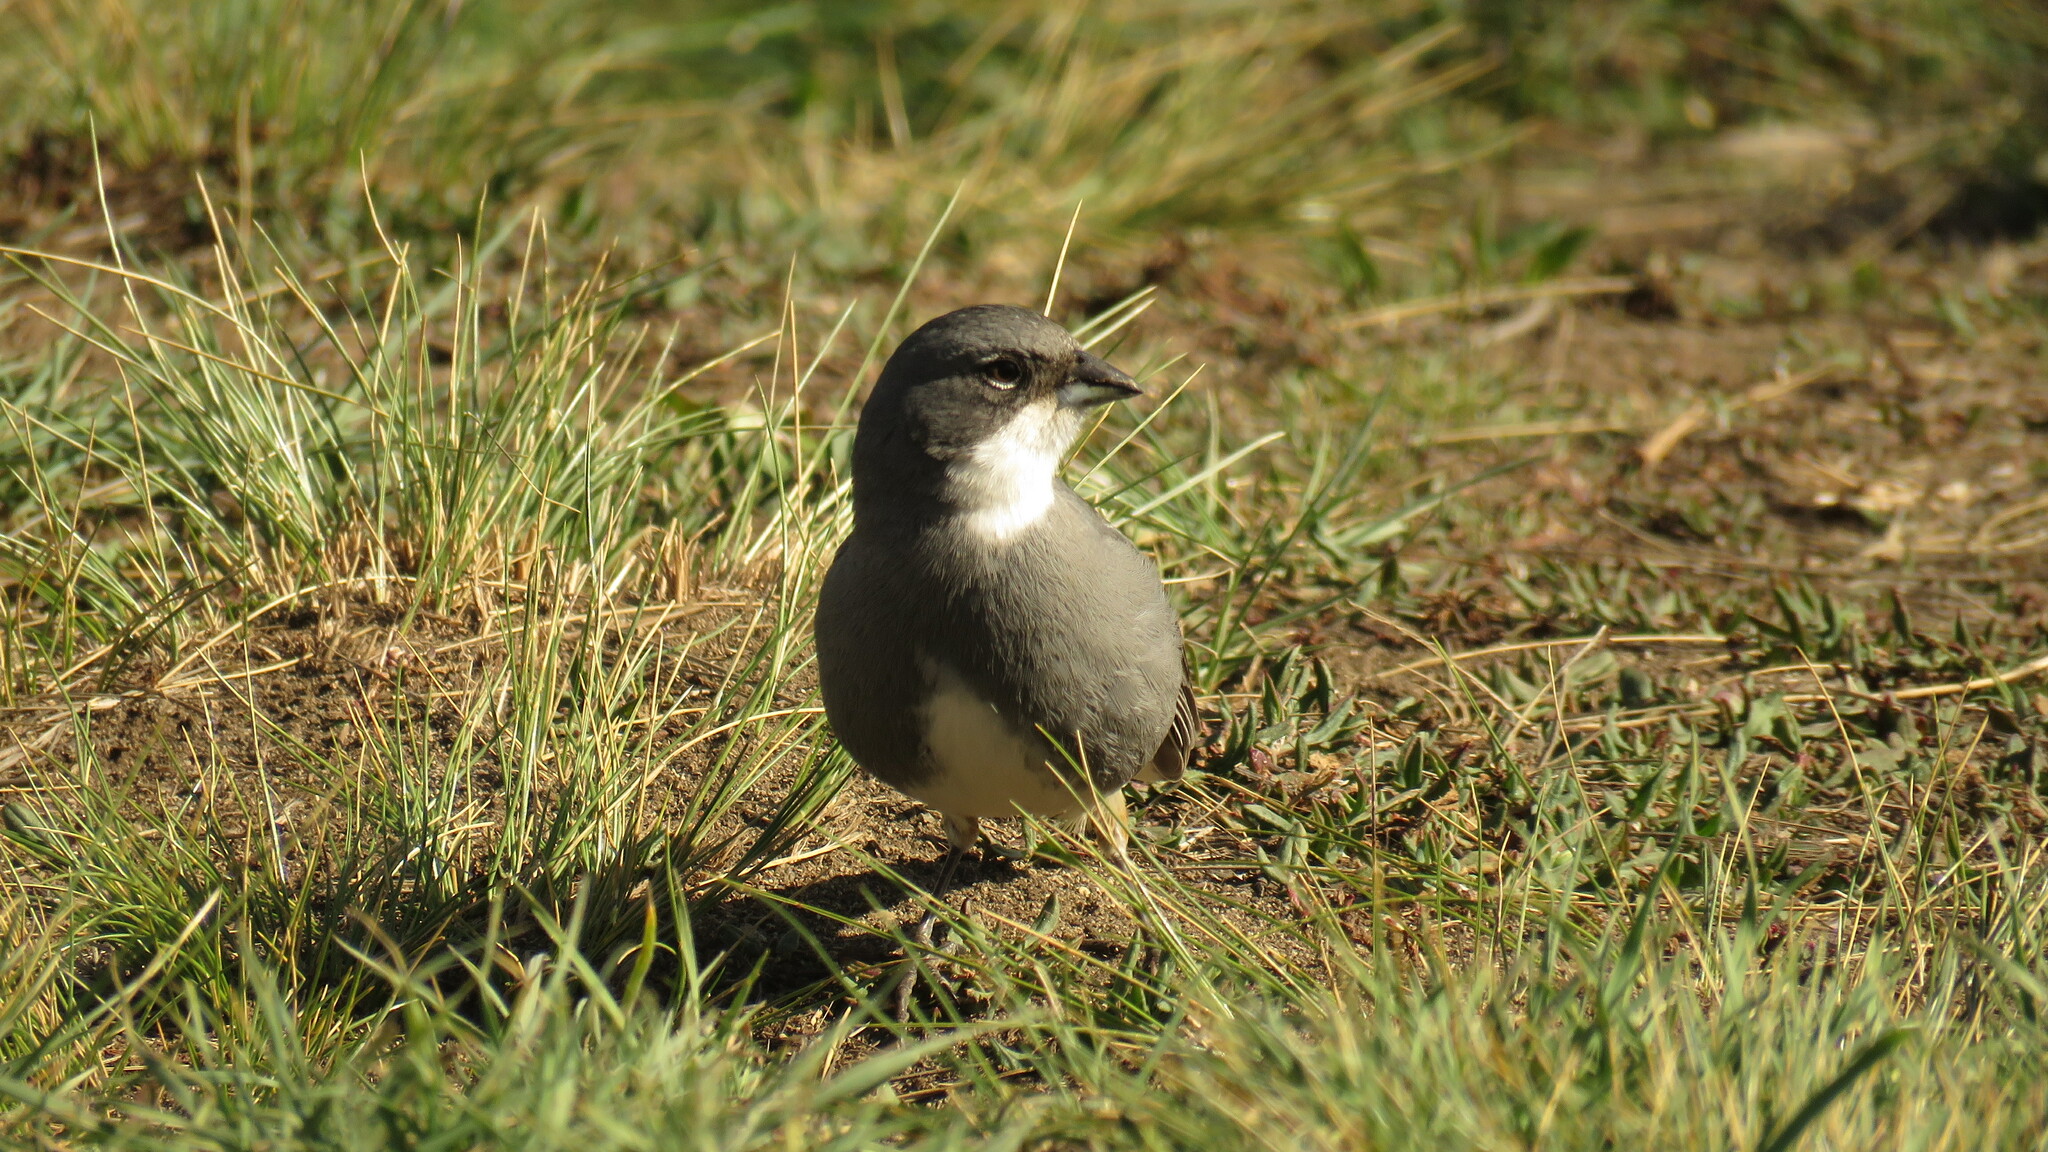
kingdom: Animalia
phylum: Chordata
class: Aves
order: Passeriformes
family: Thraupidae
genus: Diuca
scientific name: Diuca diuca
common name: Common diuca finch
